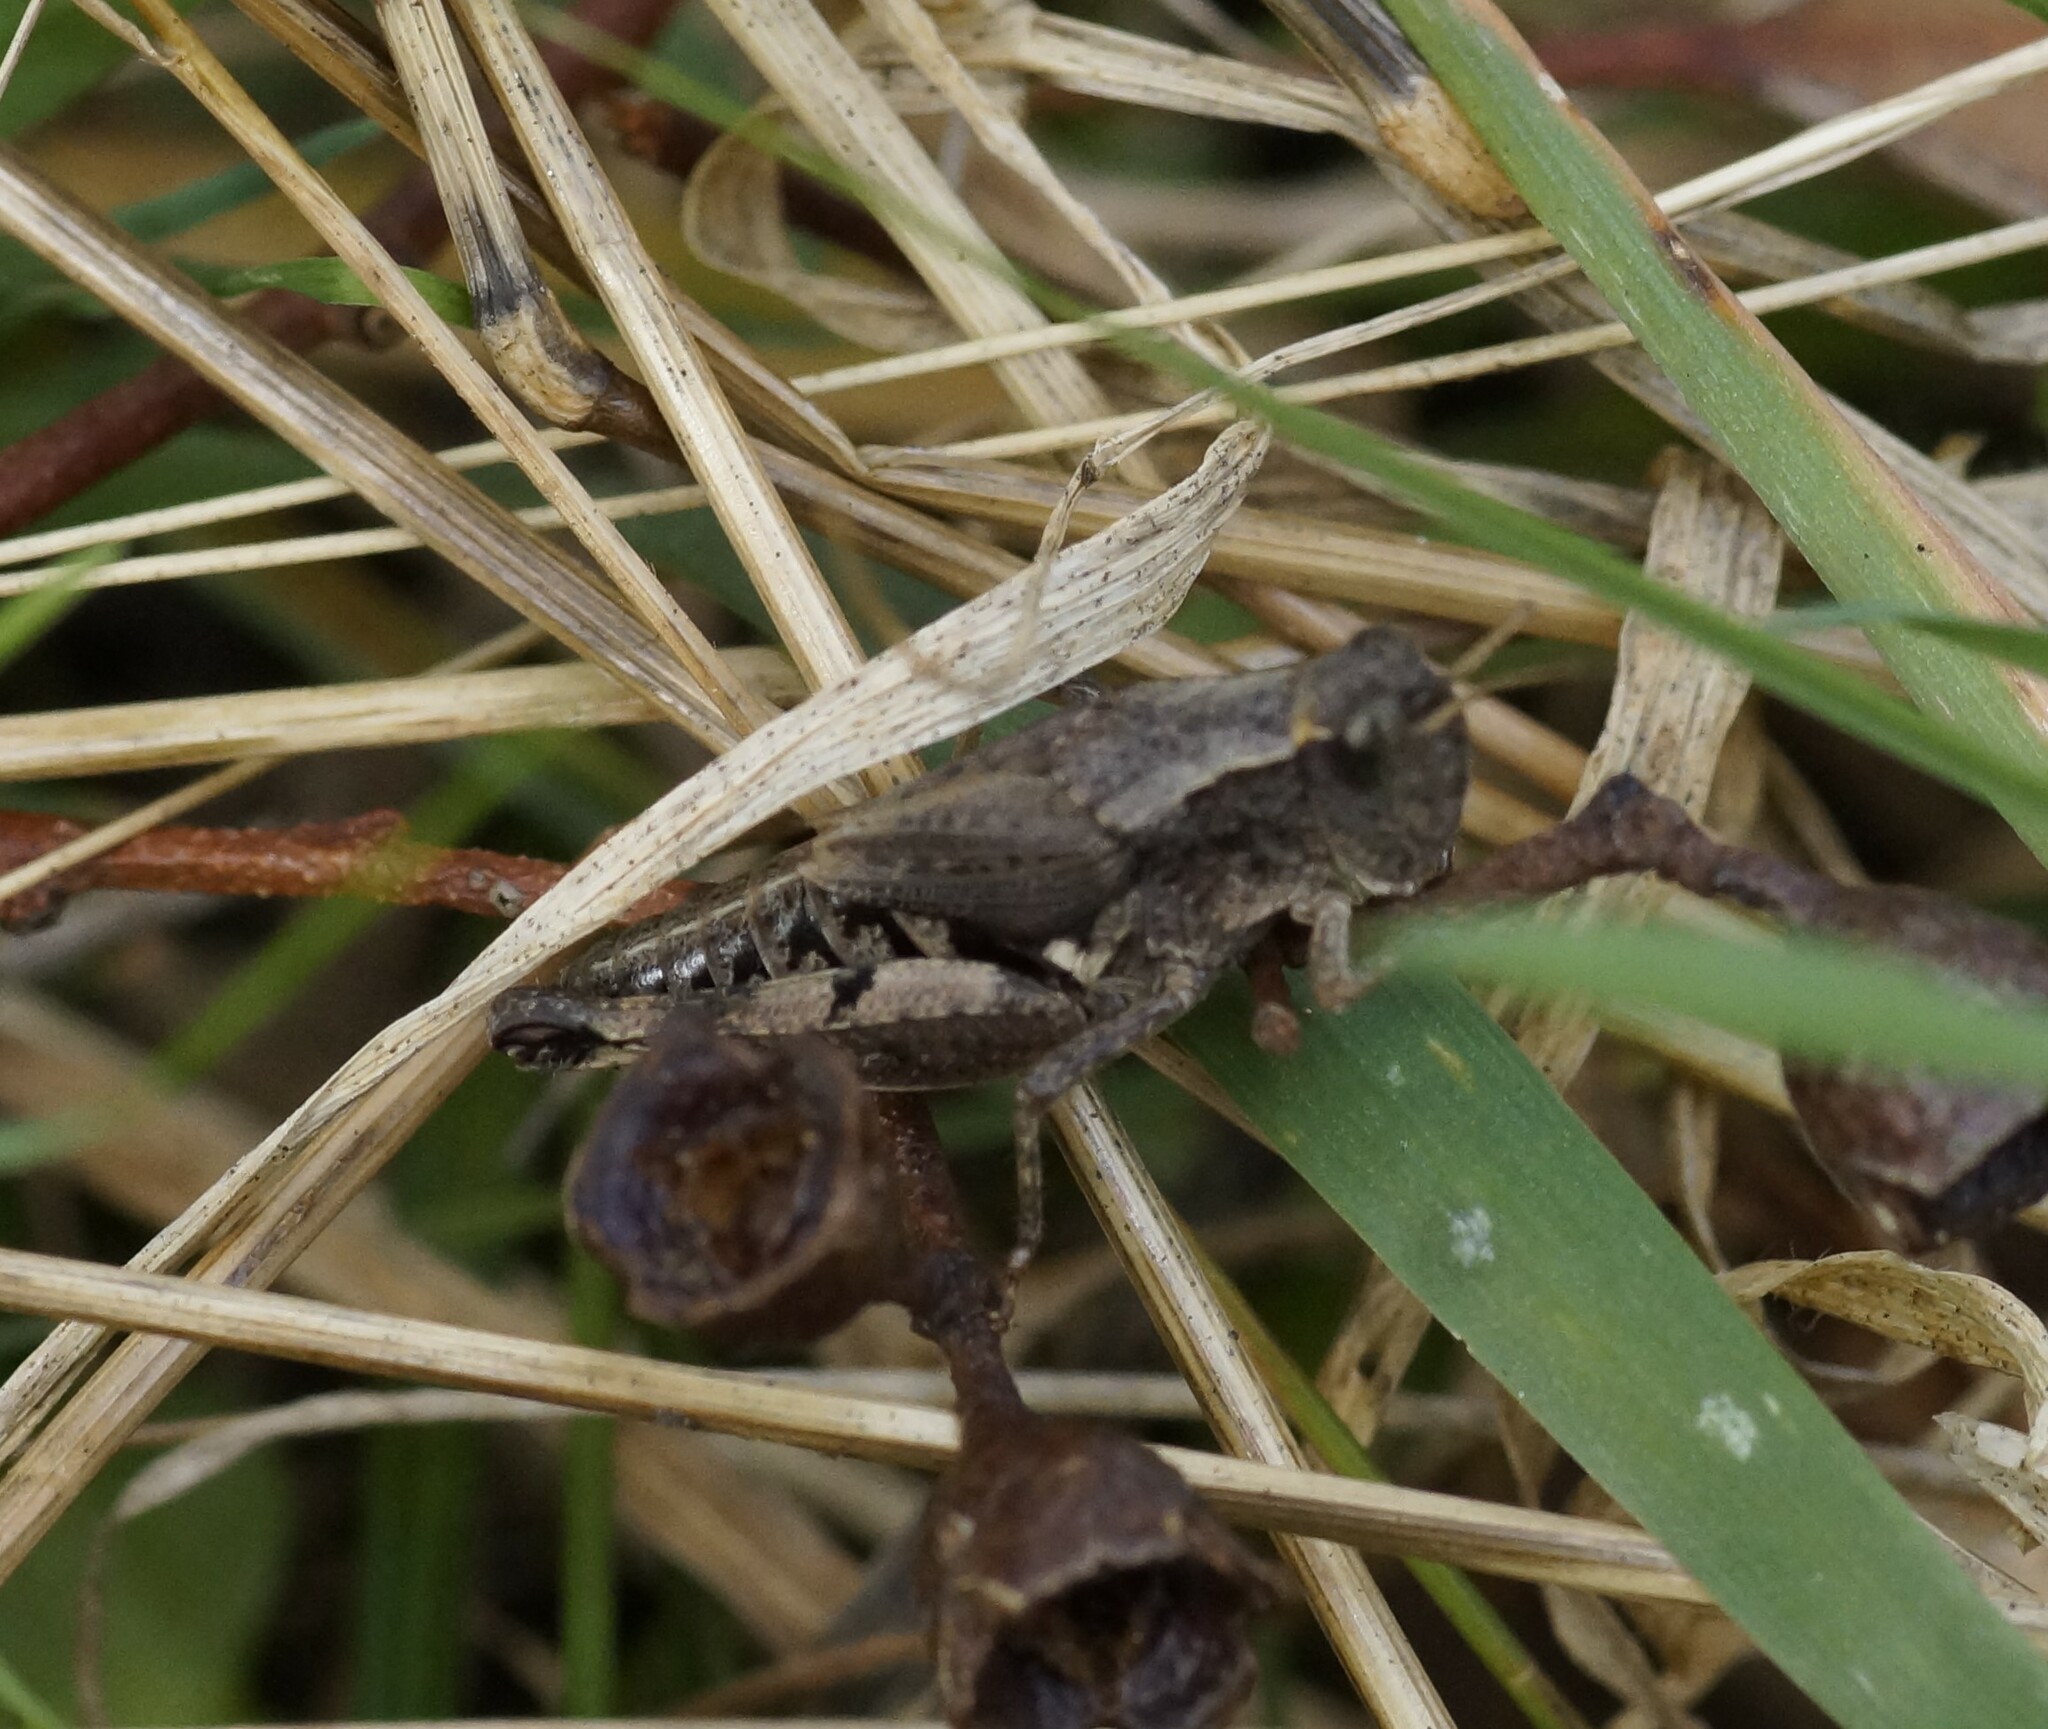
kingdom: Animalia
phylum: Arthropoda
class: Insecta
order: Orthoptera
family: Acrididae
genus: Phaulacridium
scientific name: Phaulacridium vittatum
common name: Wingless grasshopper
